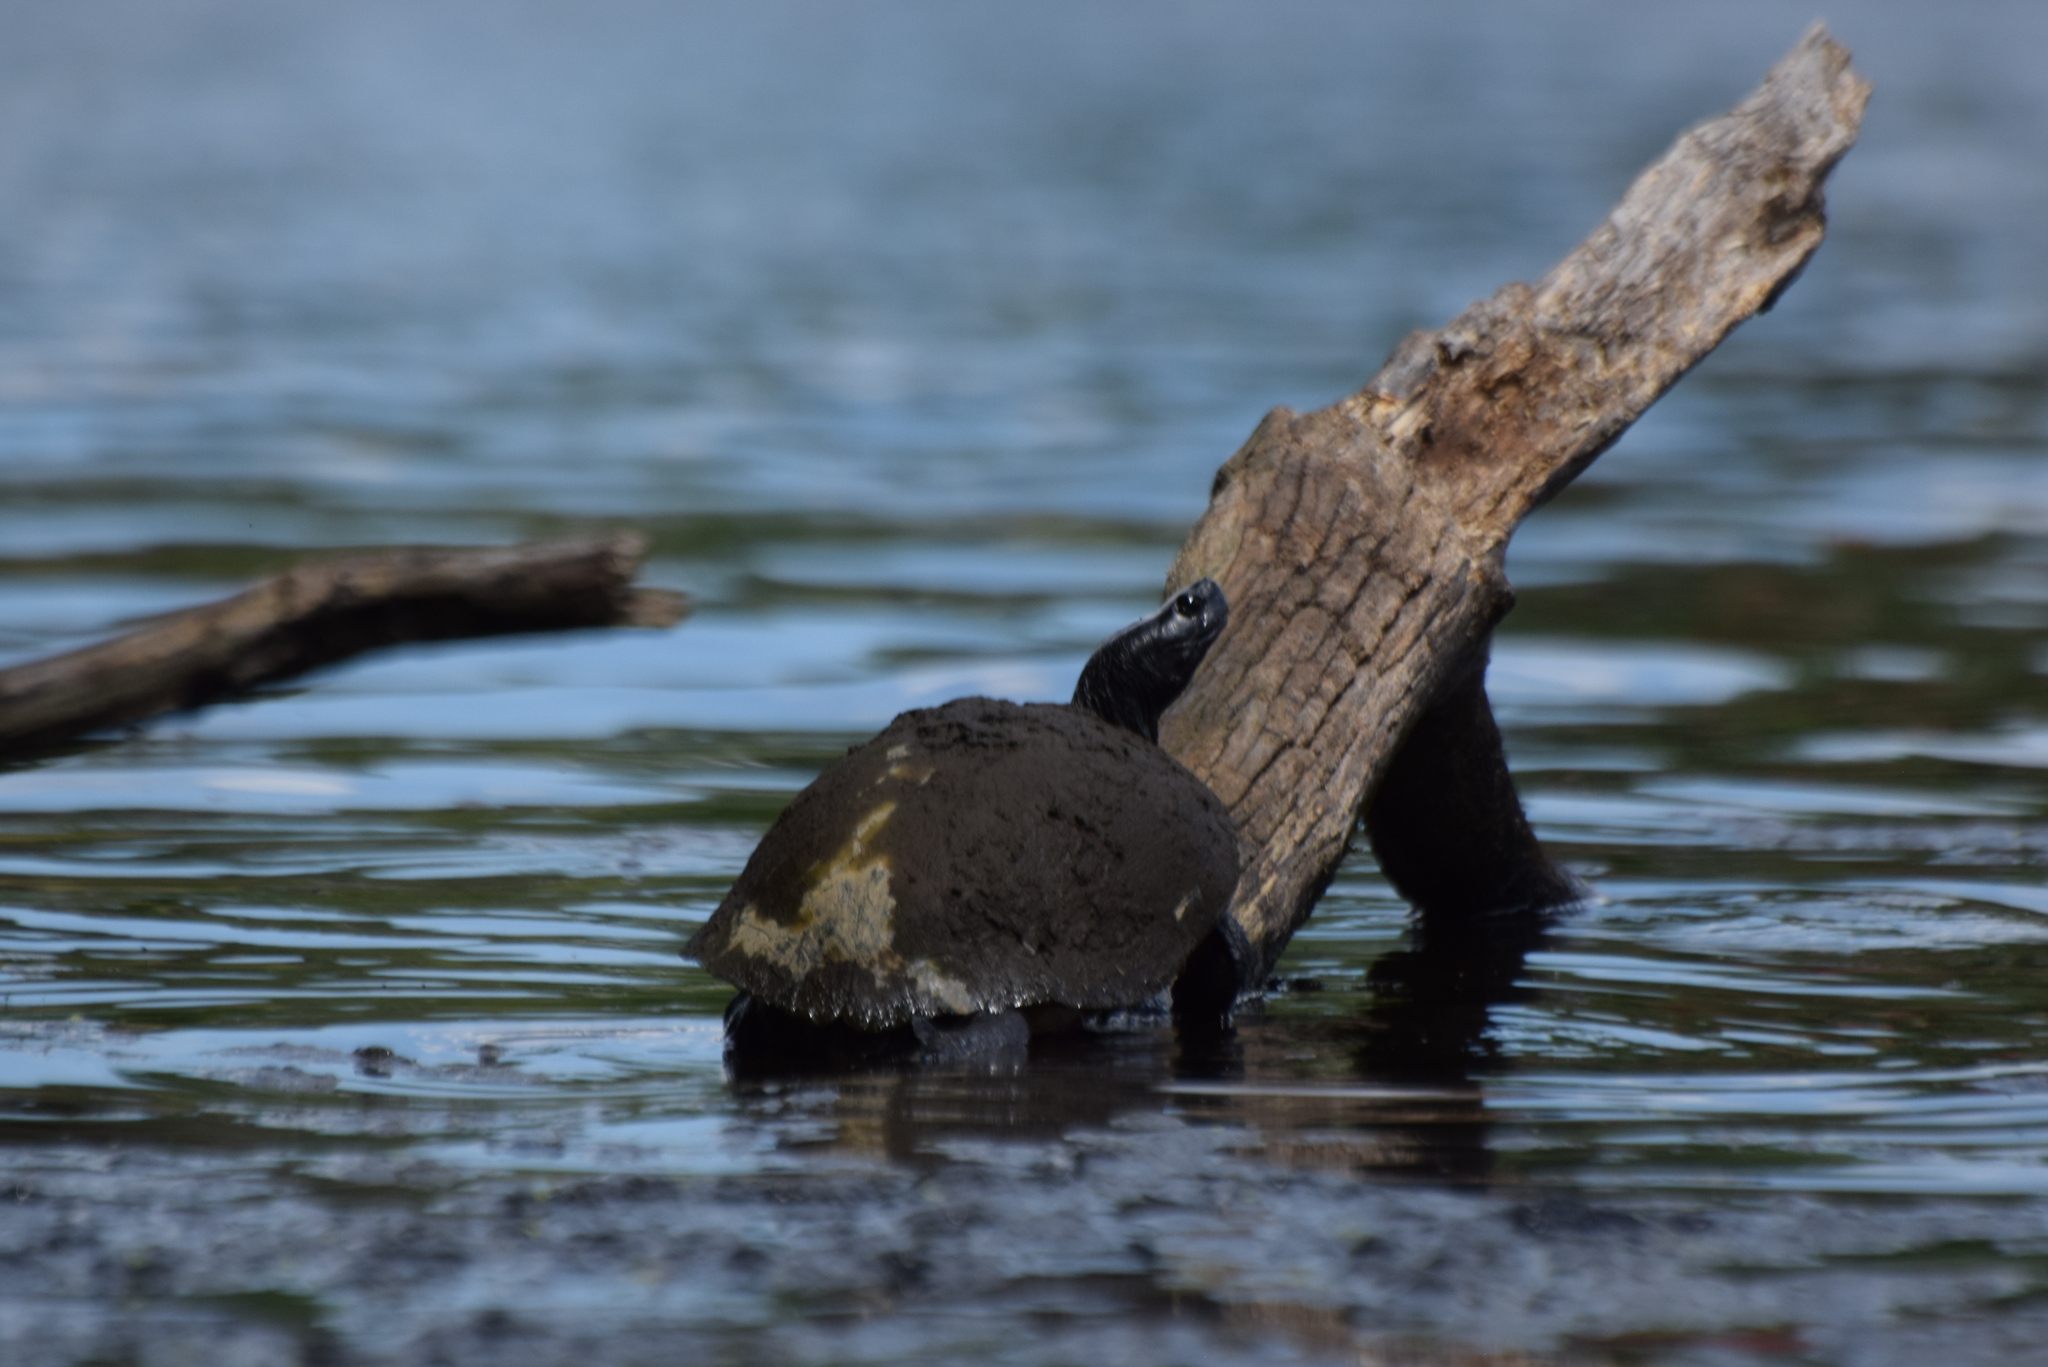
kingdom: Animalia
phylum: Chordata
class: Testudines
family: Emydidae
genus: Pseudemys
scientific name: Pseudemys rubriventris
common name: American red-bellied turtle
